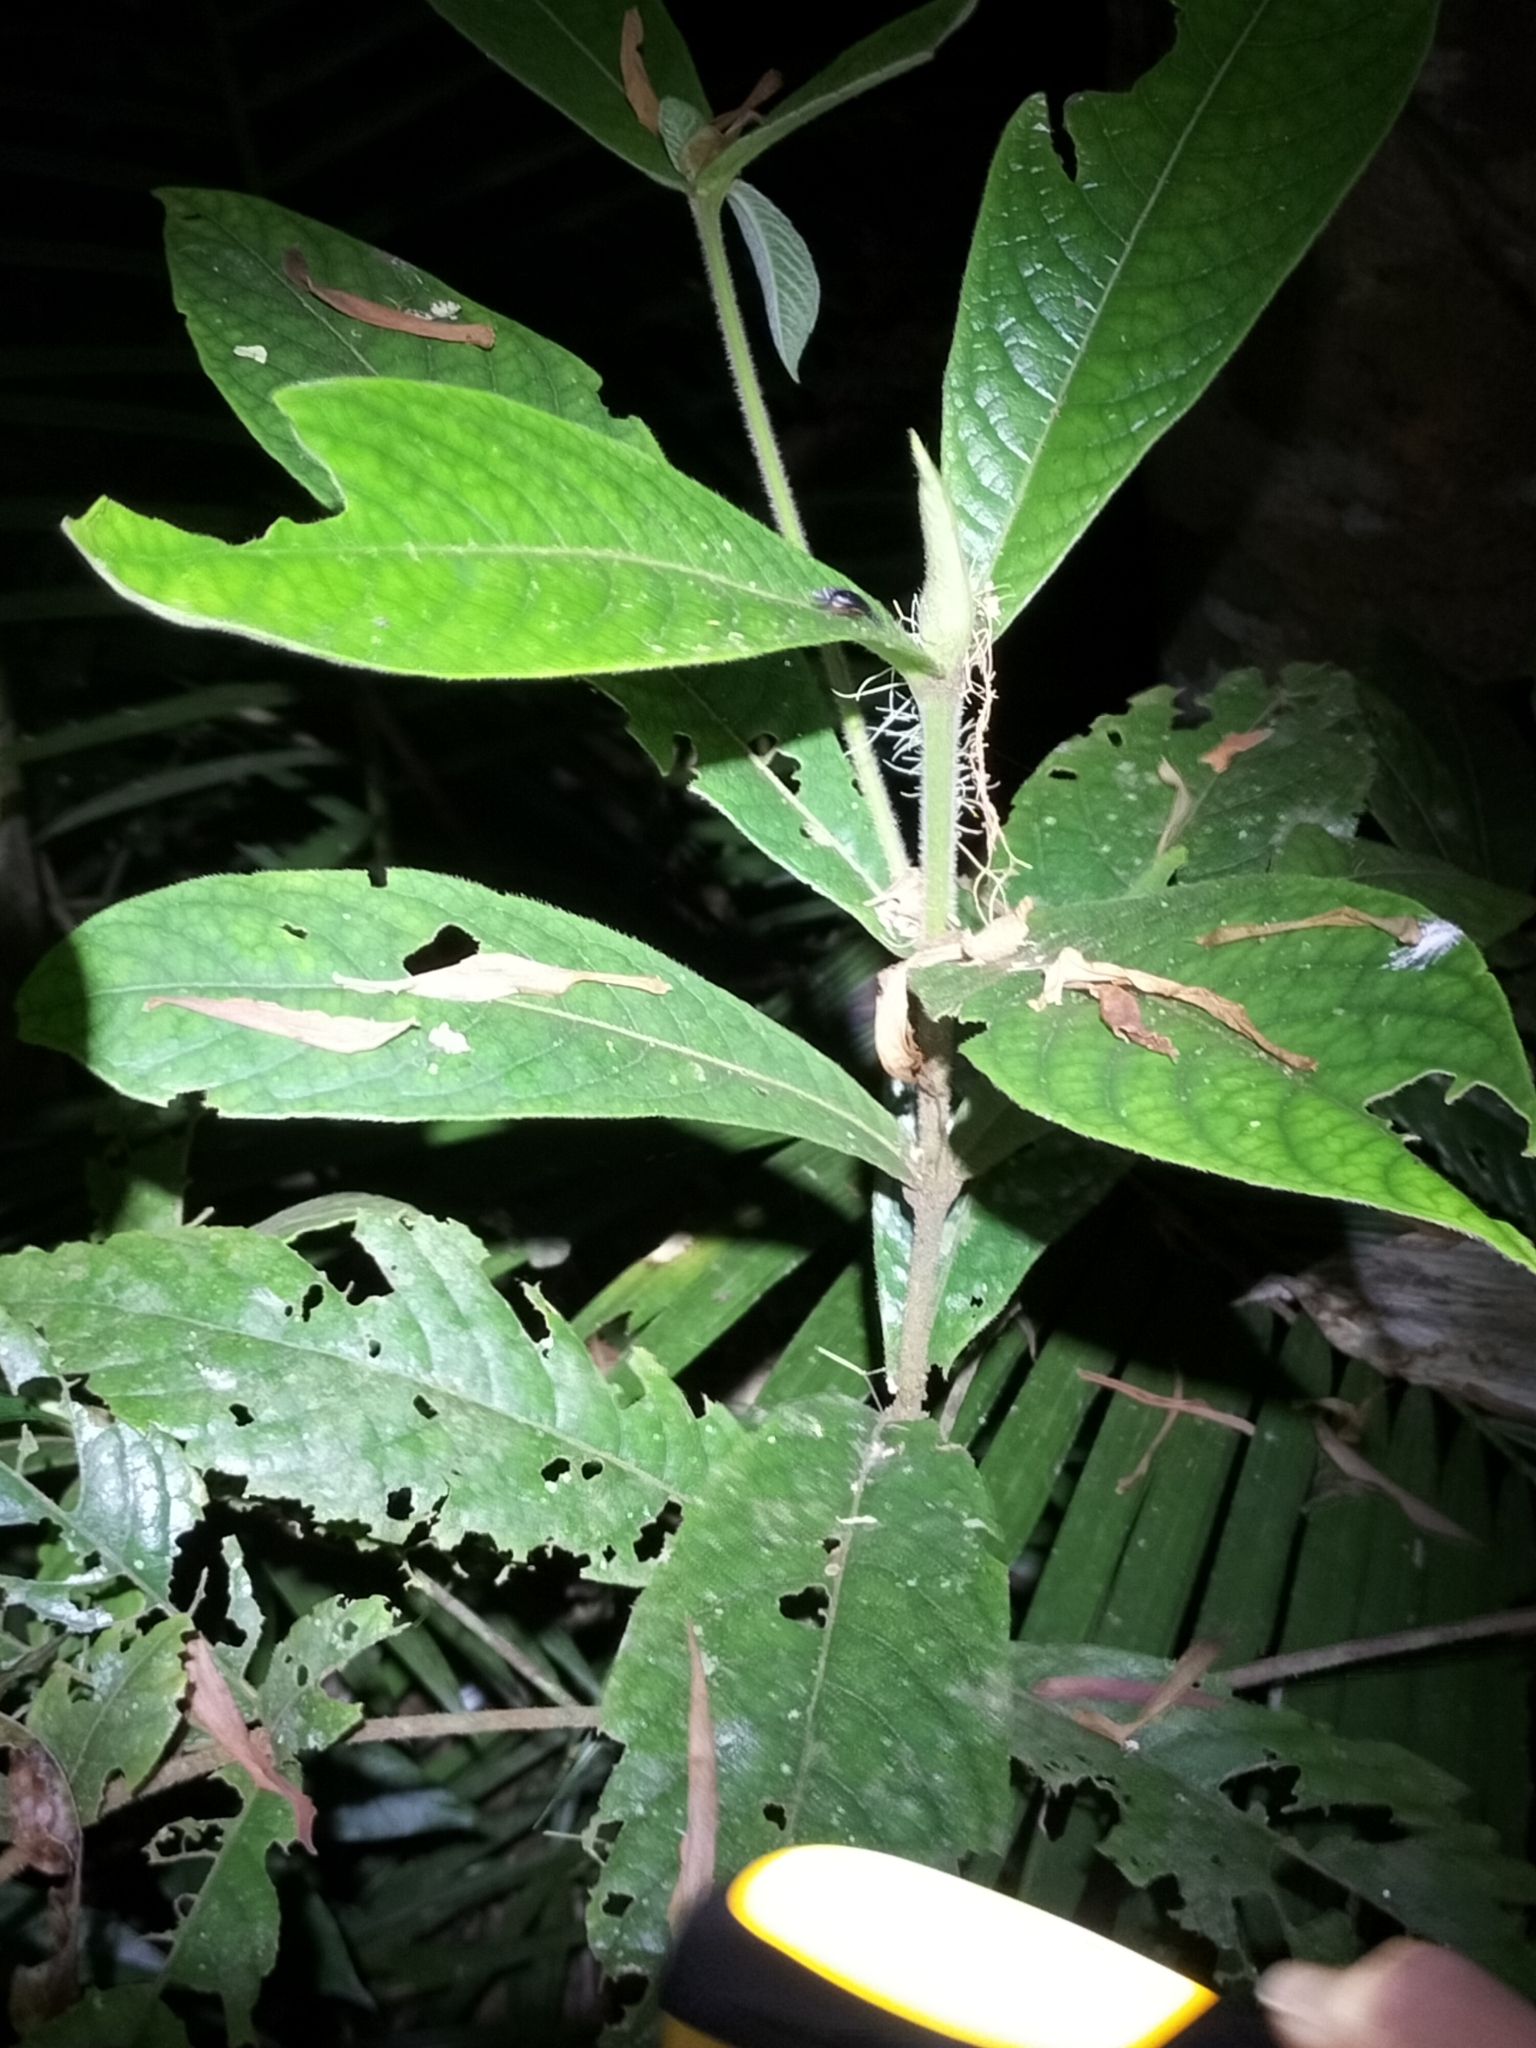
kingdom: Plantae
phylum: Tracheophyta
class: Magnoliopsida
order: Gentianales
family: Rubiaceae
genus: Atractocarpus
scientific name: Atractocarpus hirtus
